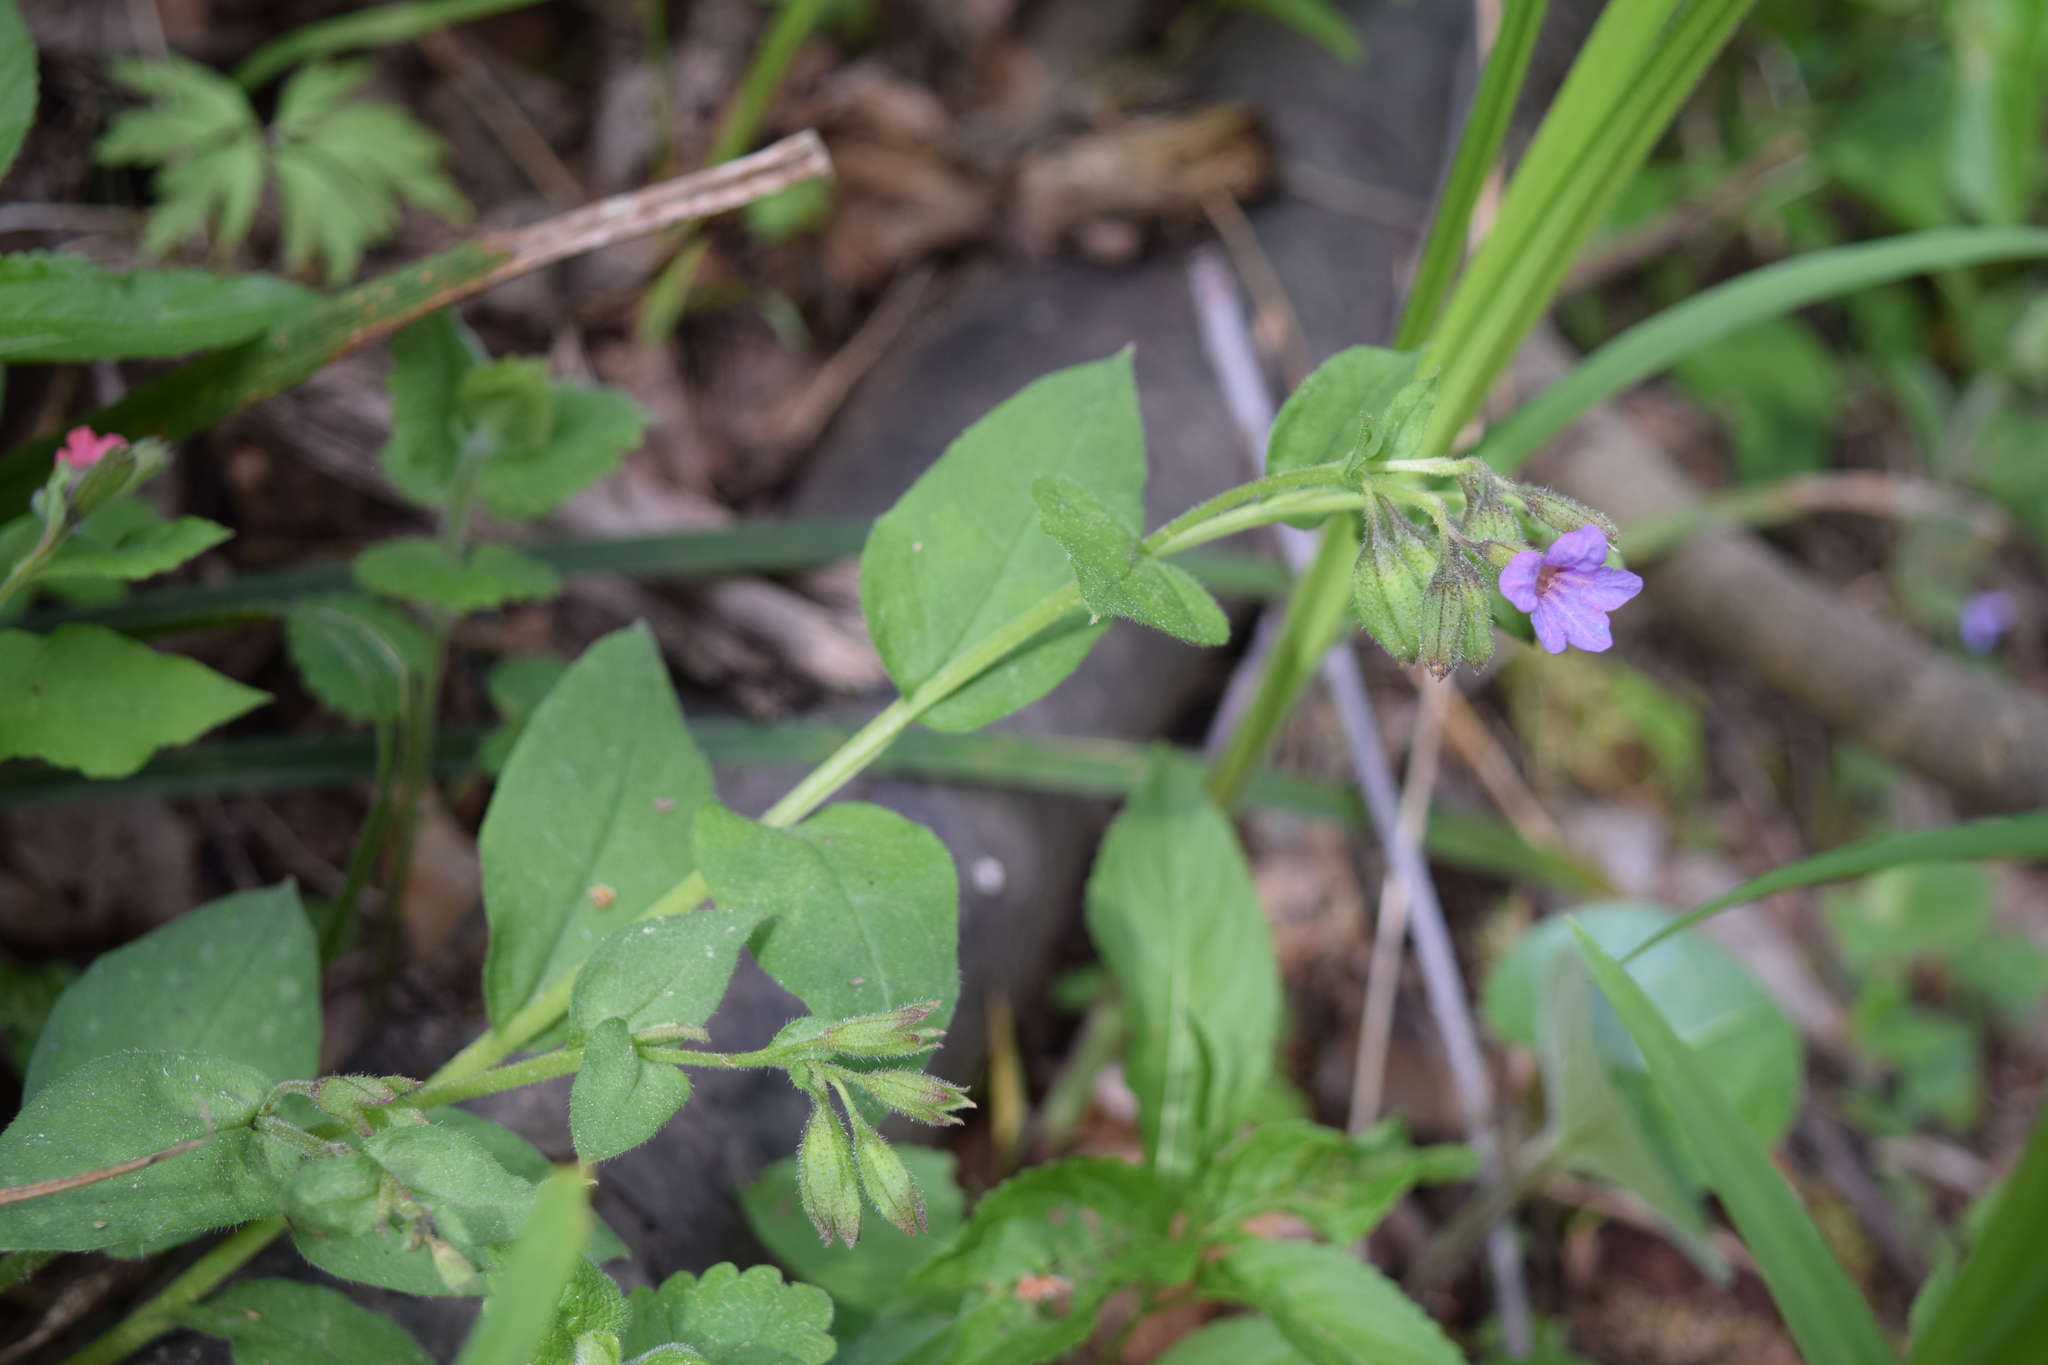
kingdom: Plantae
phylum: Tracheophyta
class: Magnoliopsida
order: Boraginales
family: Boraginaceae
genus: Pulmonaria
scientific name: Pulmonaria obscura
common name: Suffolk lungwort
